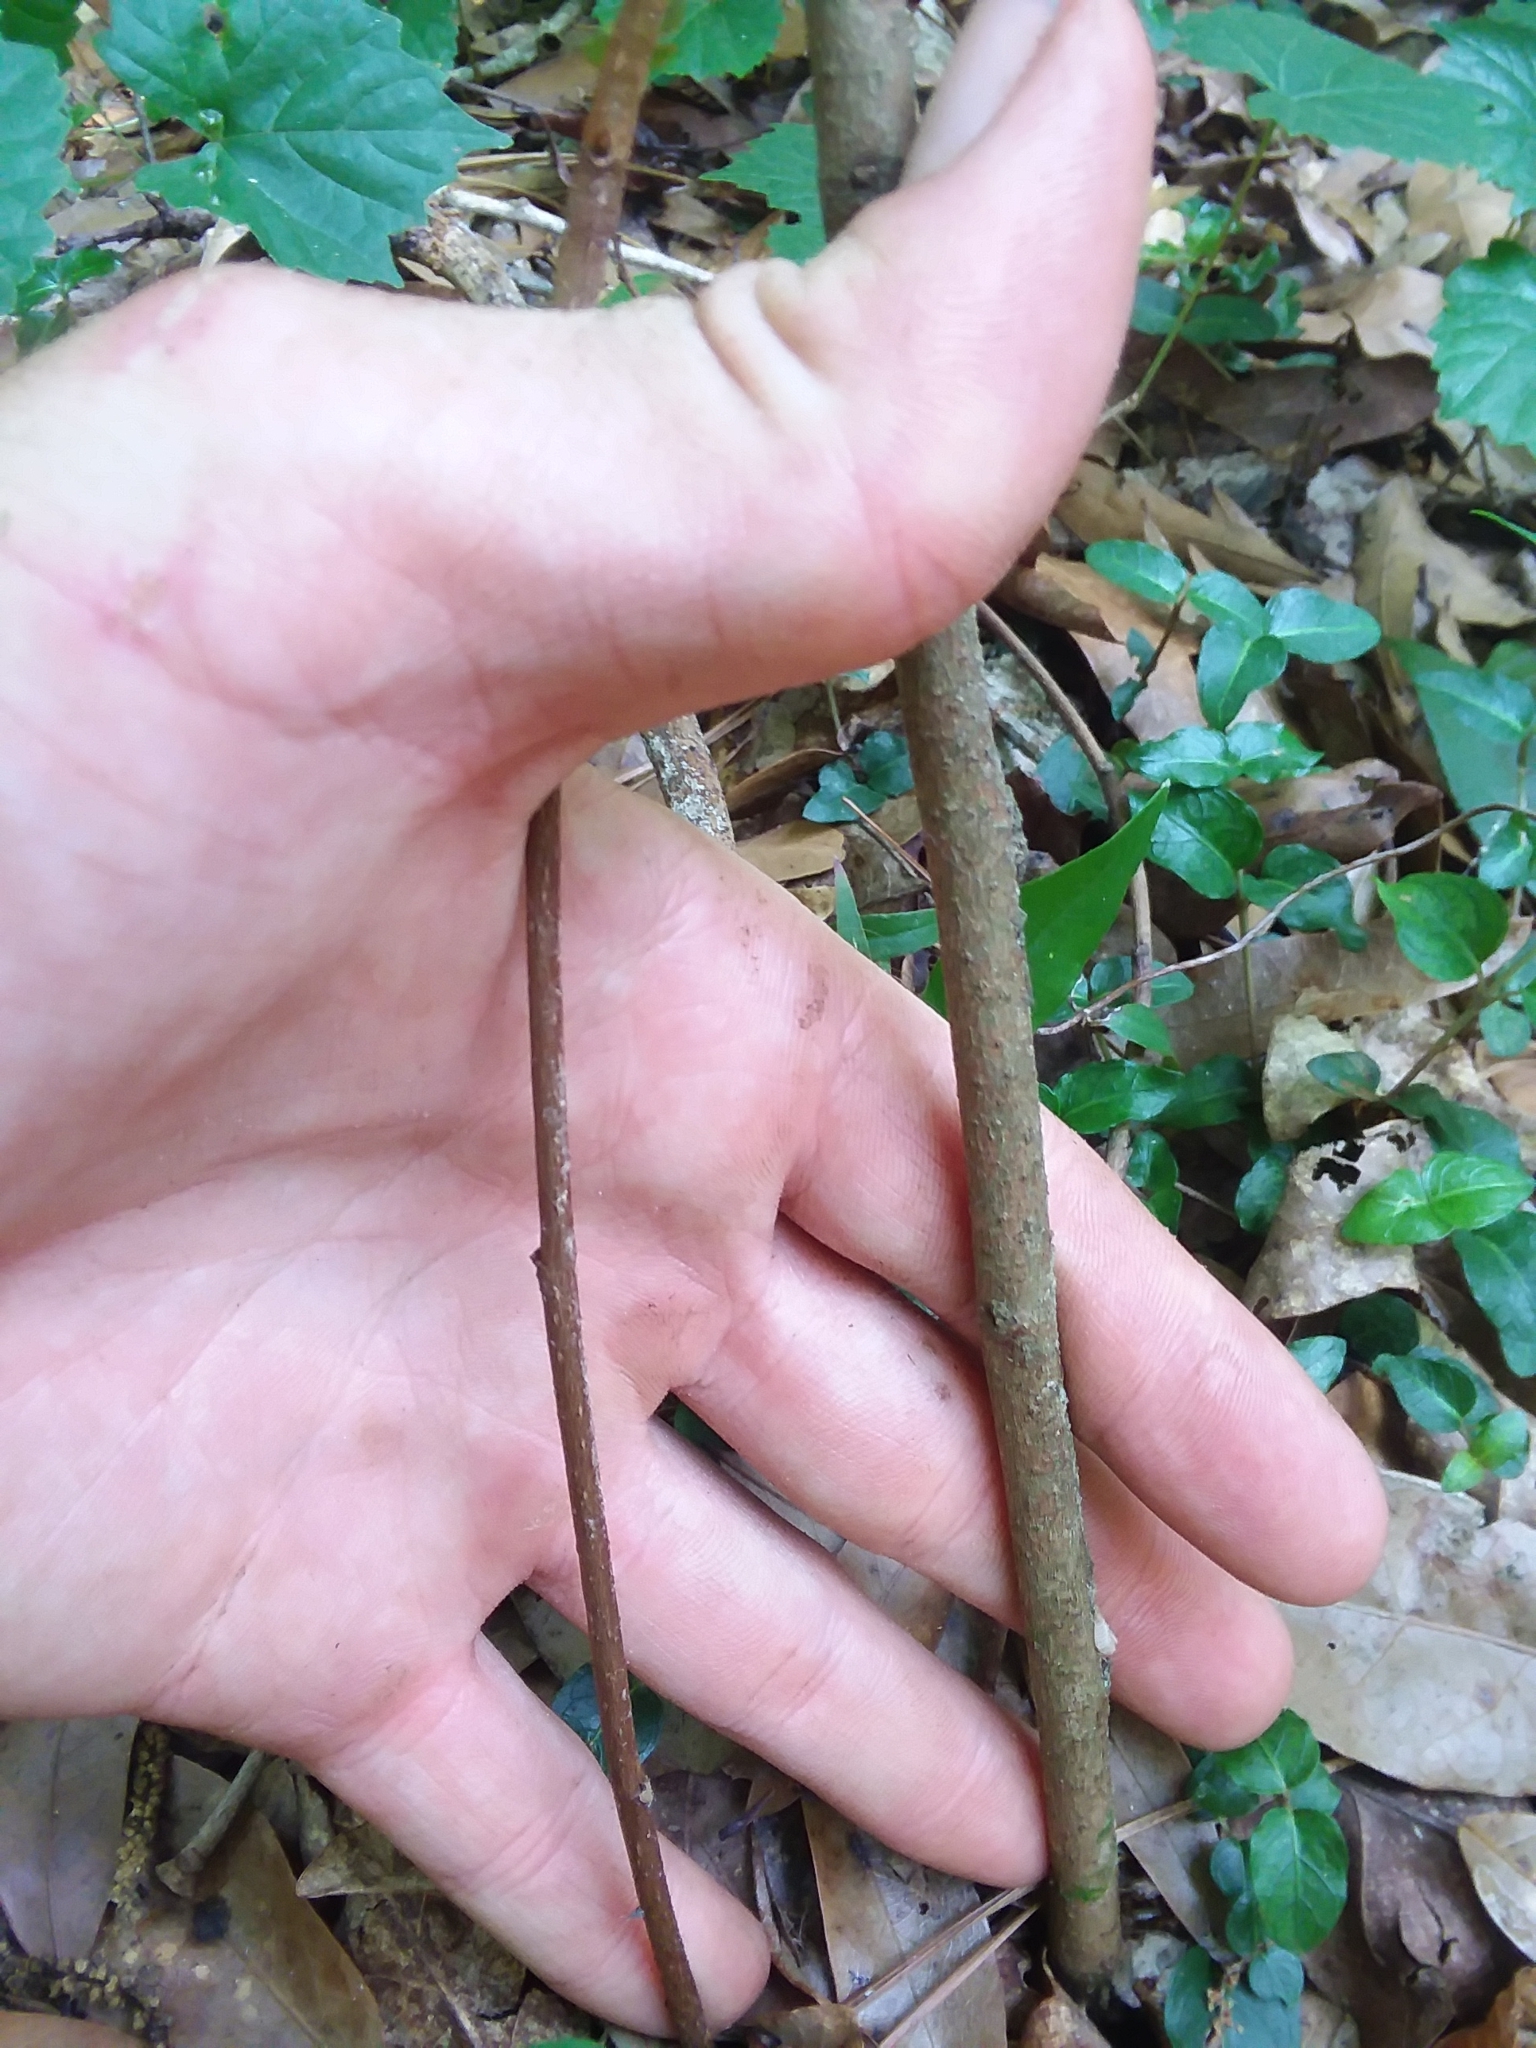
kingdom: Plantae
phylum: Tracheophyta
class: Magnoliopsida
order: Magnoliales
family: Annonaceae
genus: Asimina
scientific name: Asimina parviflora
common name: Dwarf pawpaw
